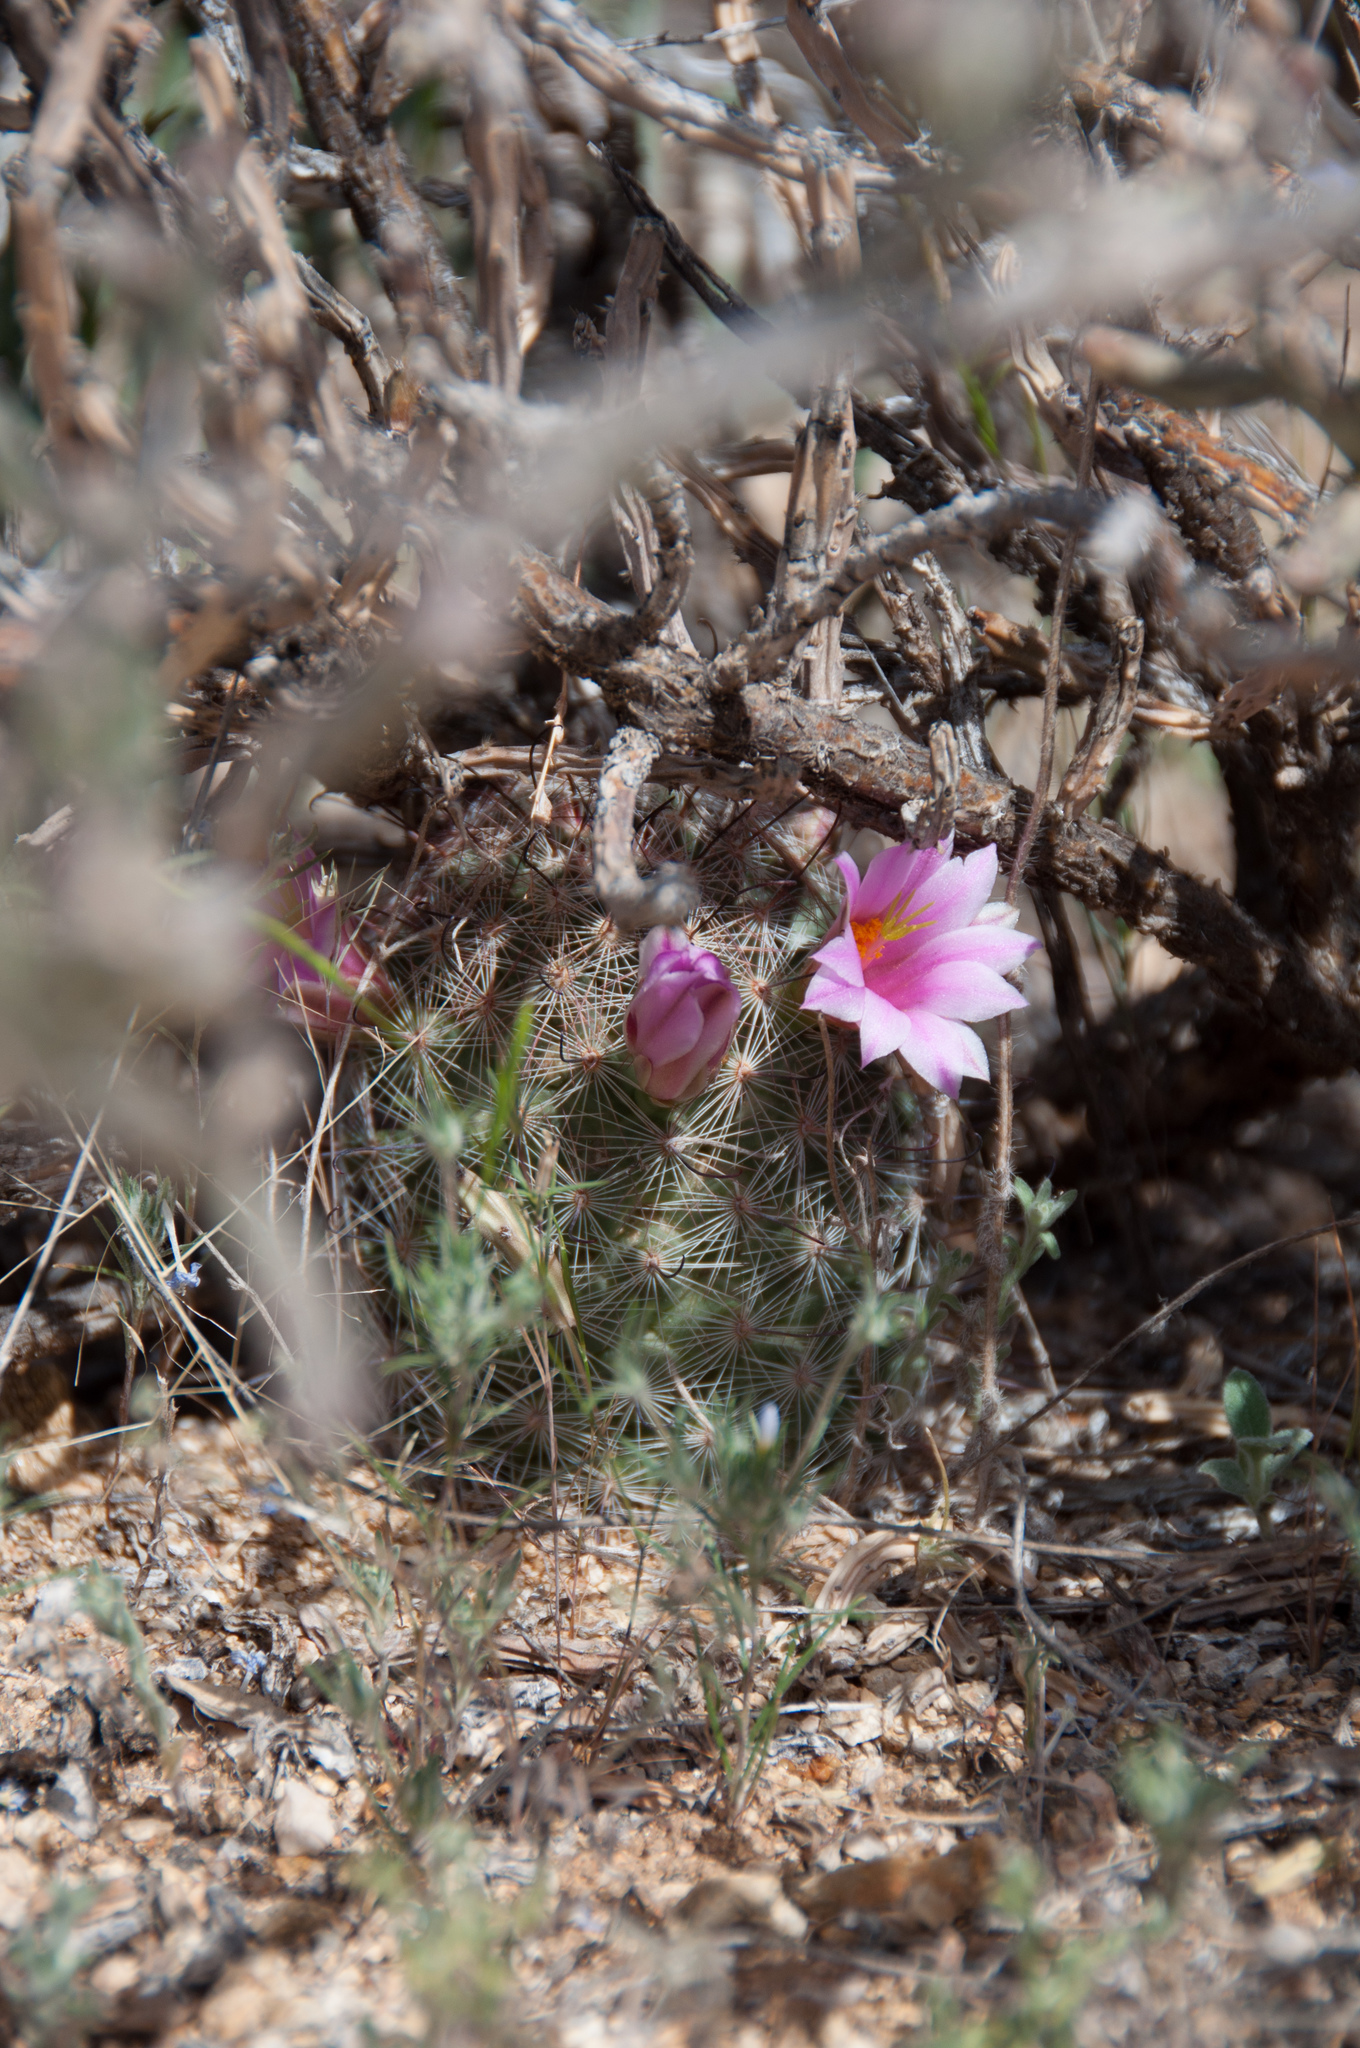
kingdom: Plantae
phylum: Tracheophyta
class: Magnoliopsida
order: Caryophyllales
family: Cactaceae
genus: Cochemiea
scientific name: Cochemiea grahamii
